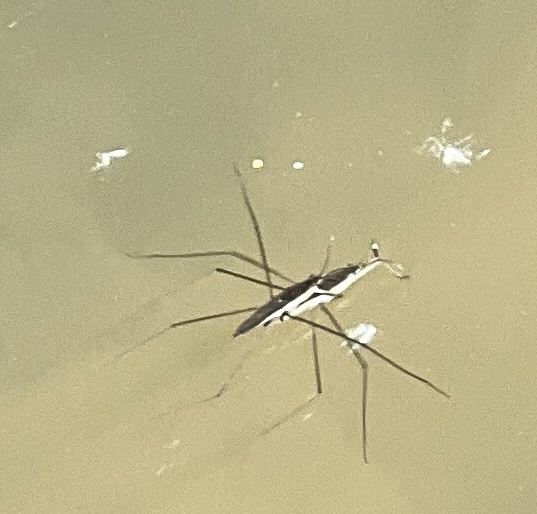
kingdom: Animalia
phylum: Arthropoda
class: Insecta
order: Hemiptera
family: Gerridae
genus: Aquarius
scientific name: Aquarius paludum
